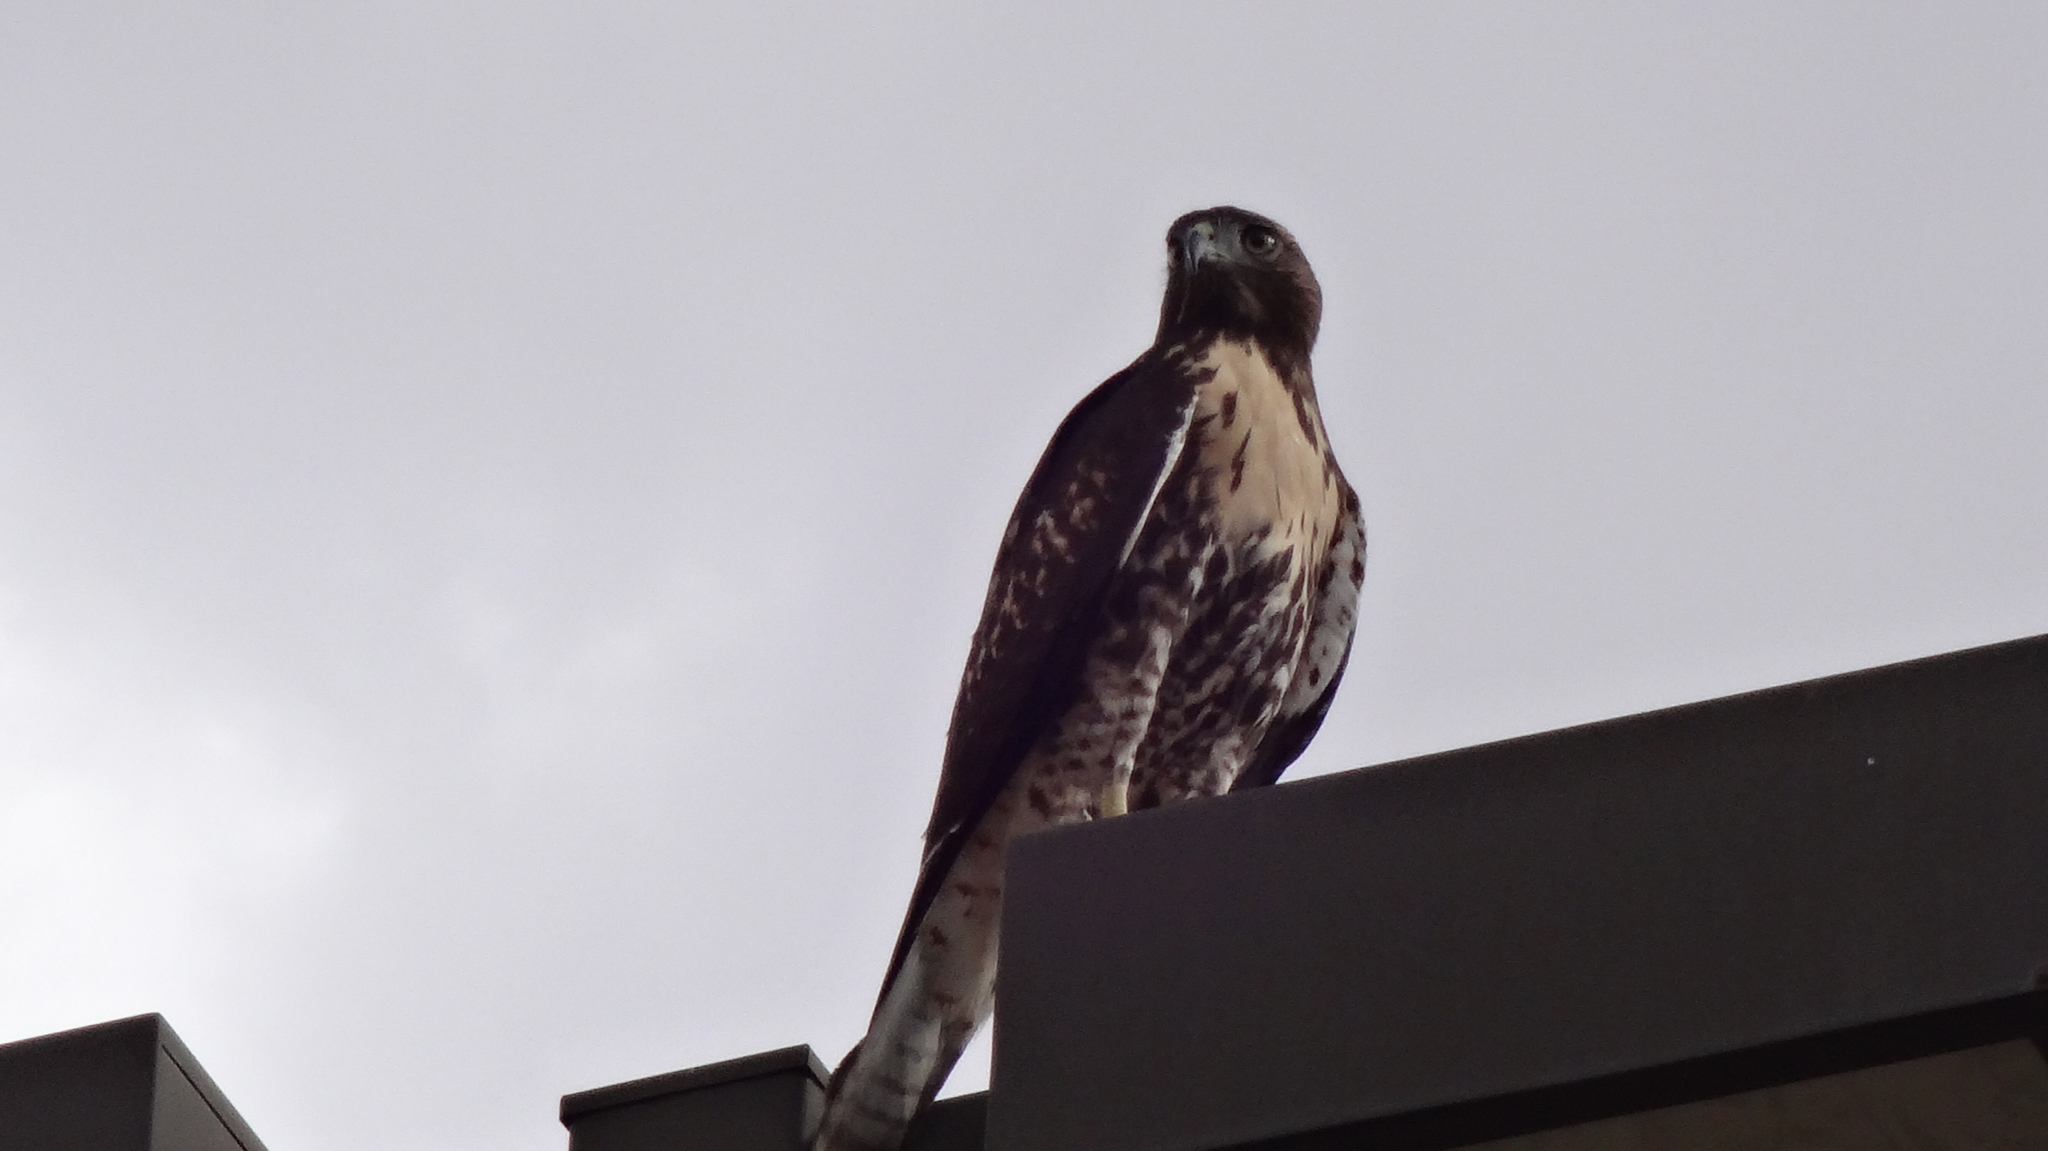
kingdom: Animalia
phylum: Chordata
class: Aves
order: Accipitriformes
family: Accipitridae
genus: Buteo
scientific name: Buteo jamaicensis
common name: Red-tailed hawk
